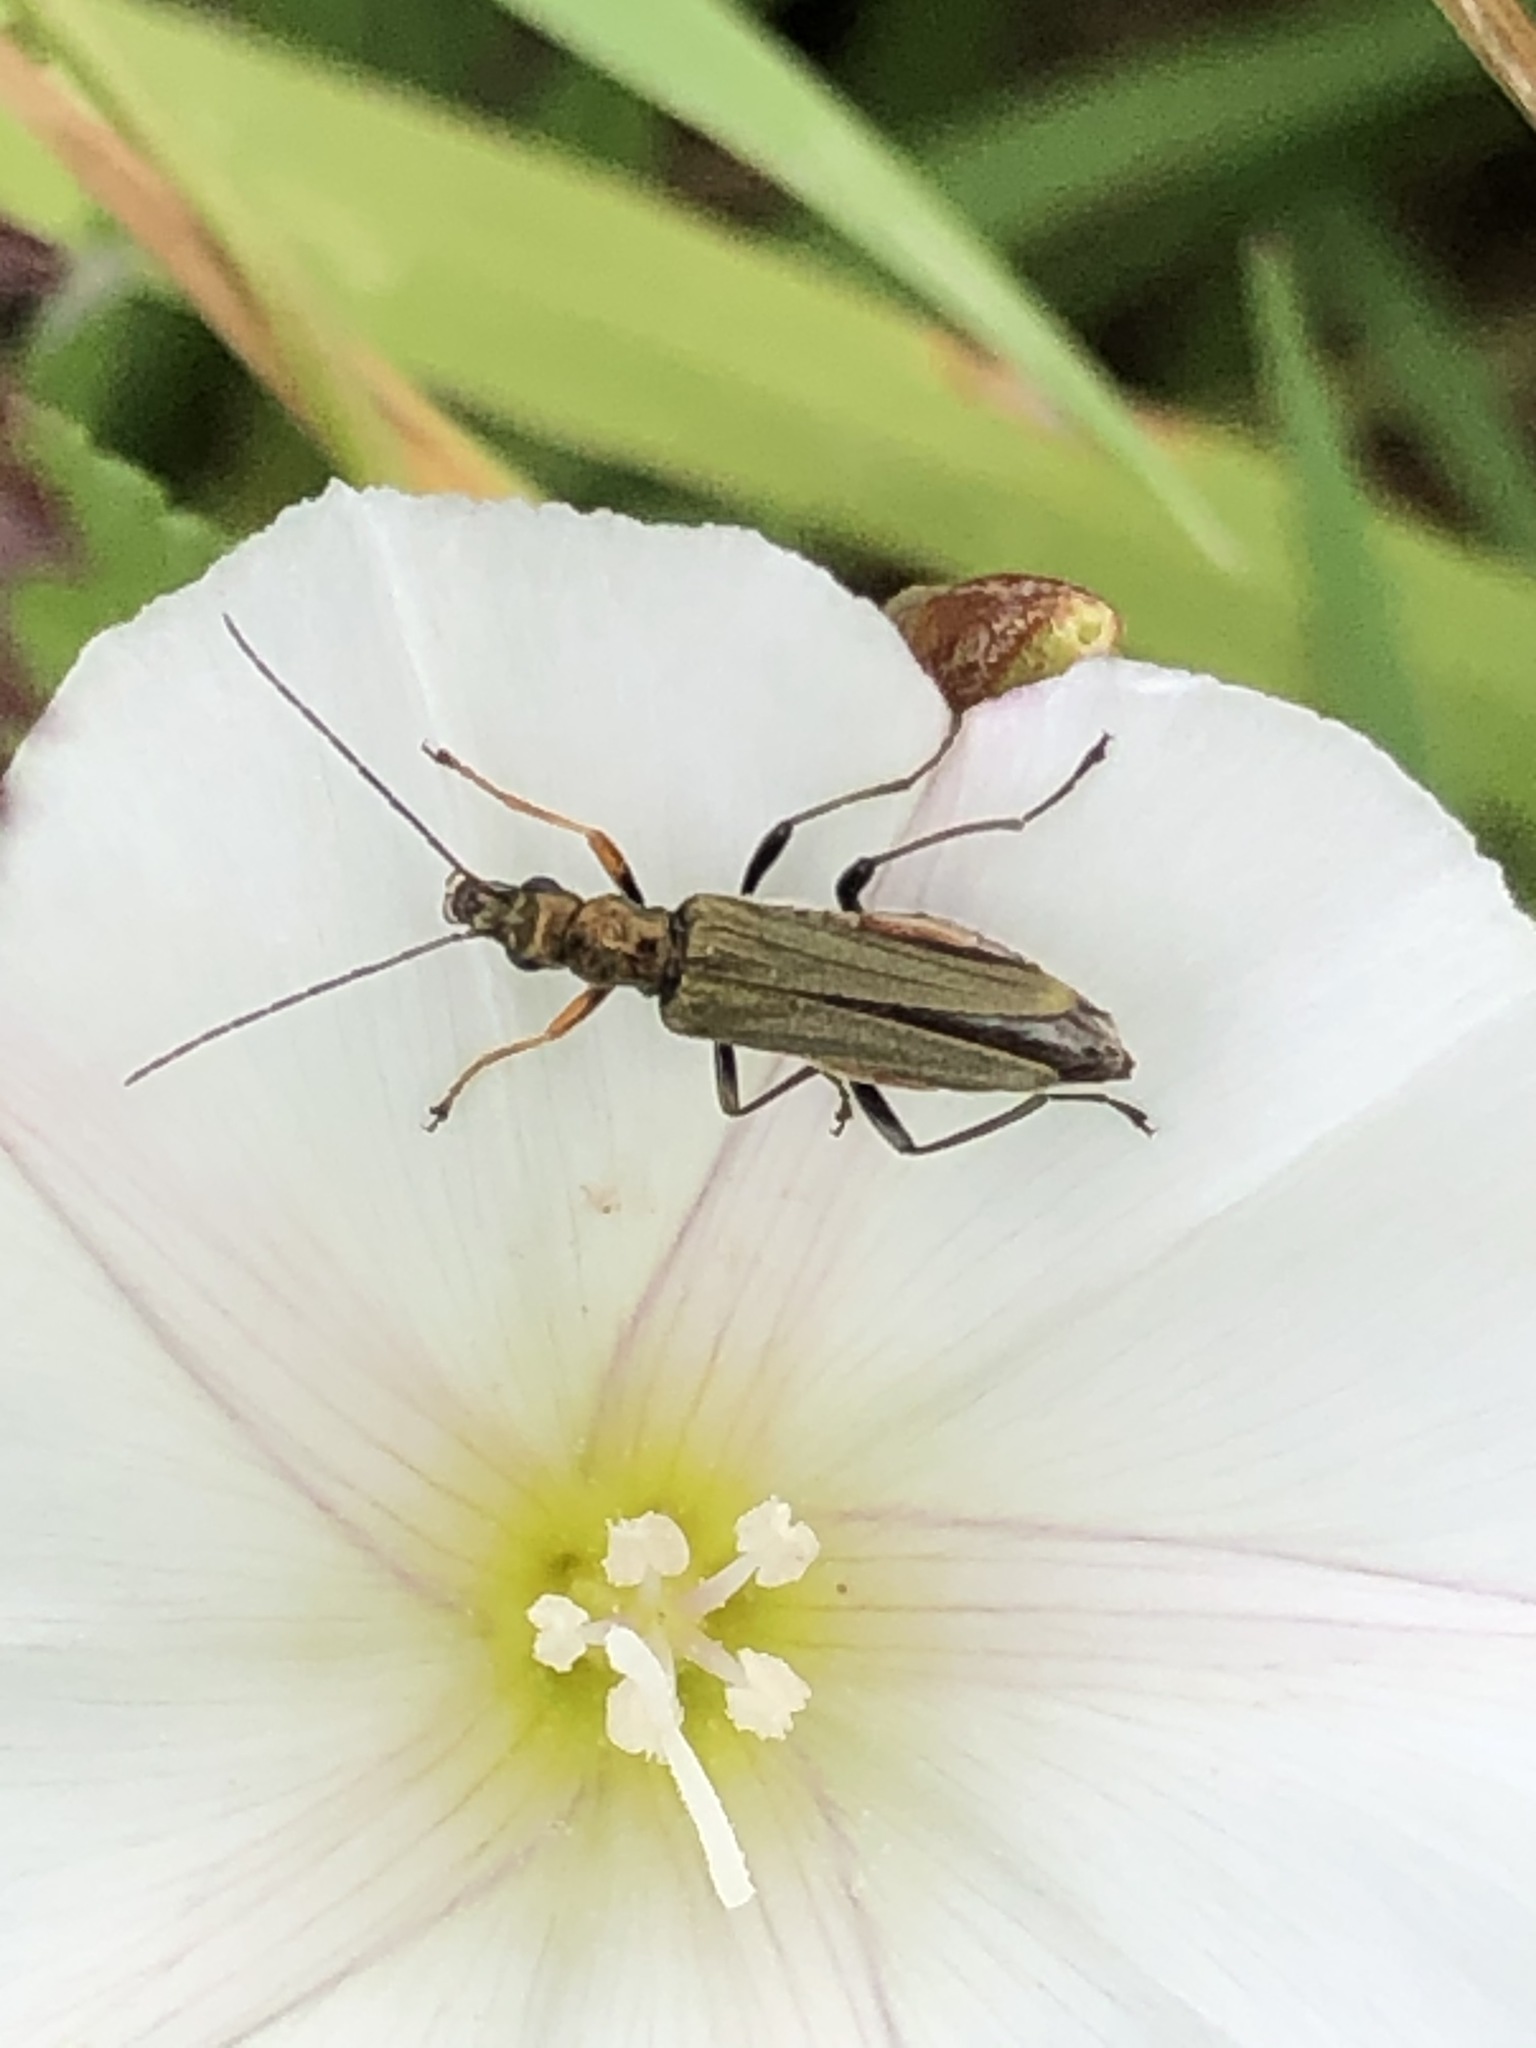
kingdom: Animalia
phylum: Arthropoda
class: Insecta
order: Coleoptera
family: Oedemeridae
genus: Oedemera
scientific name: Oedemera flavipes
